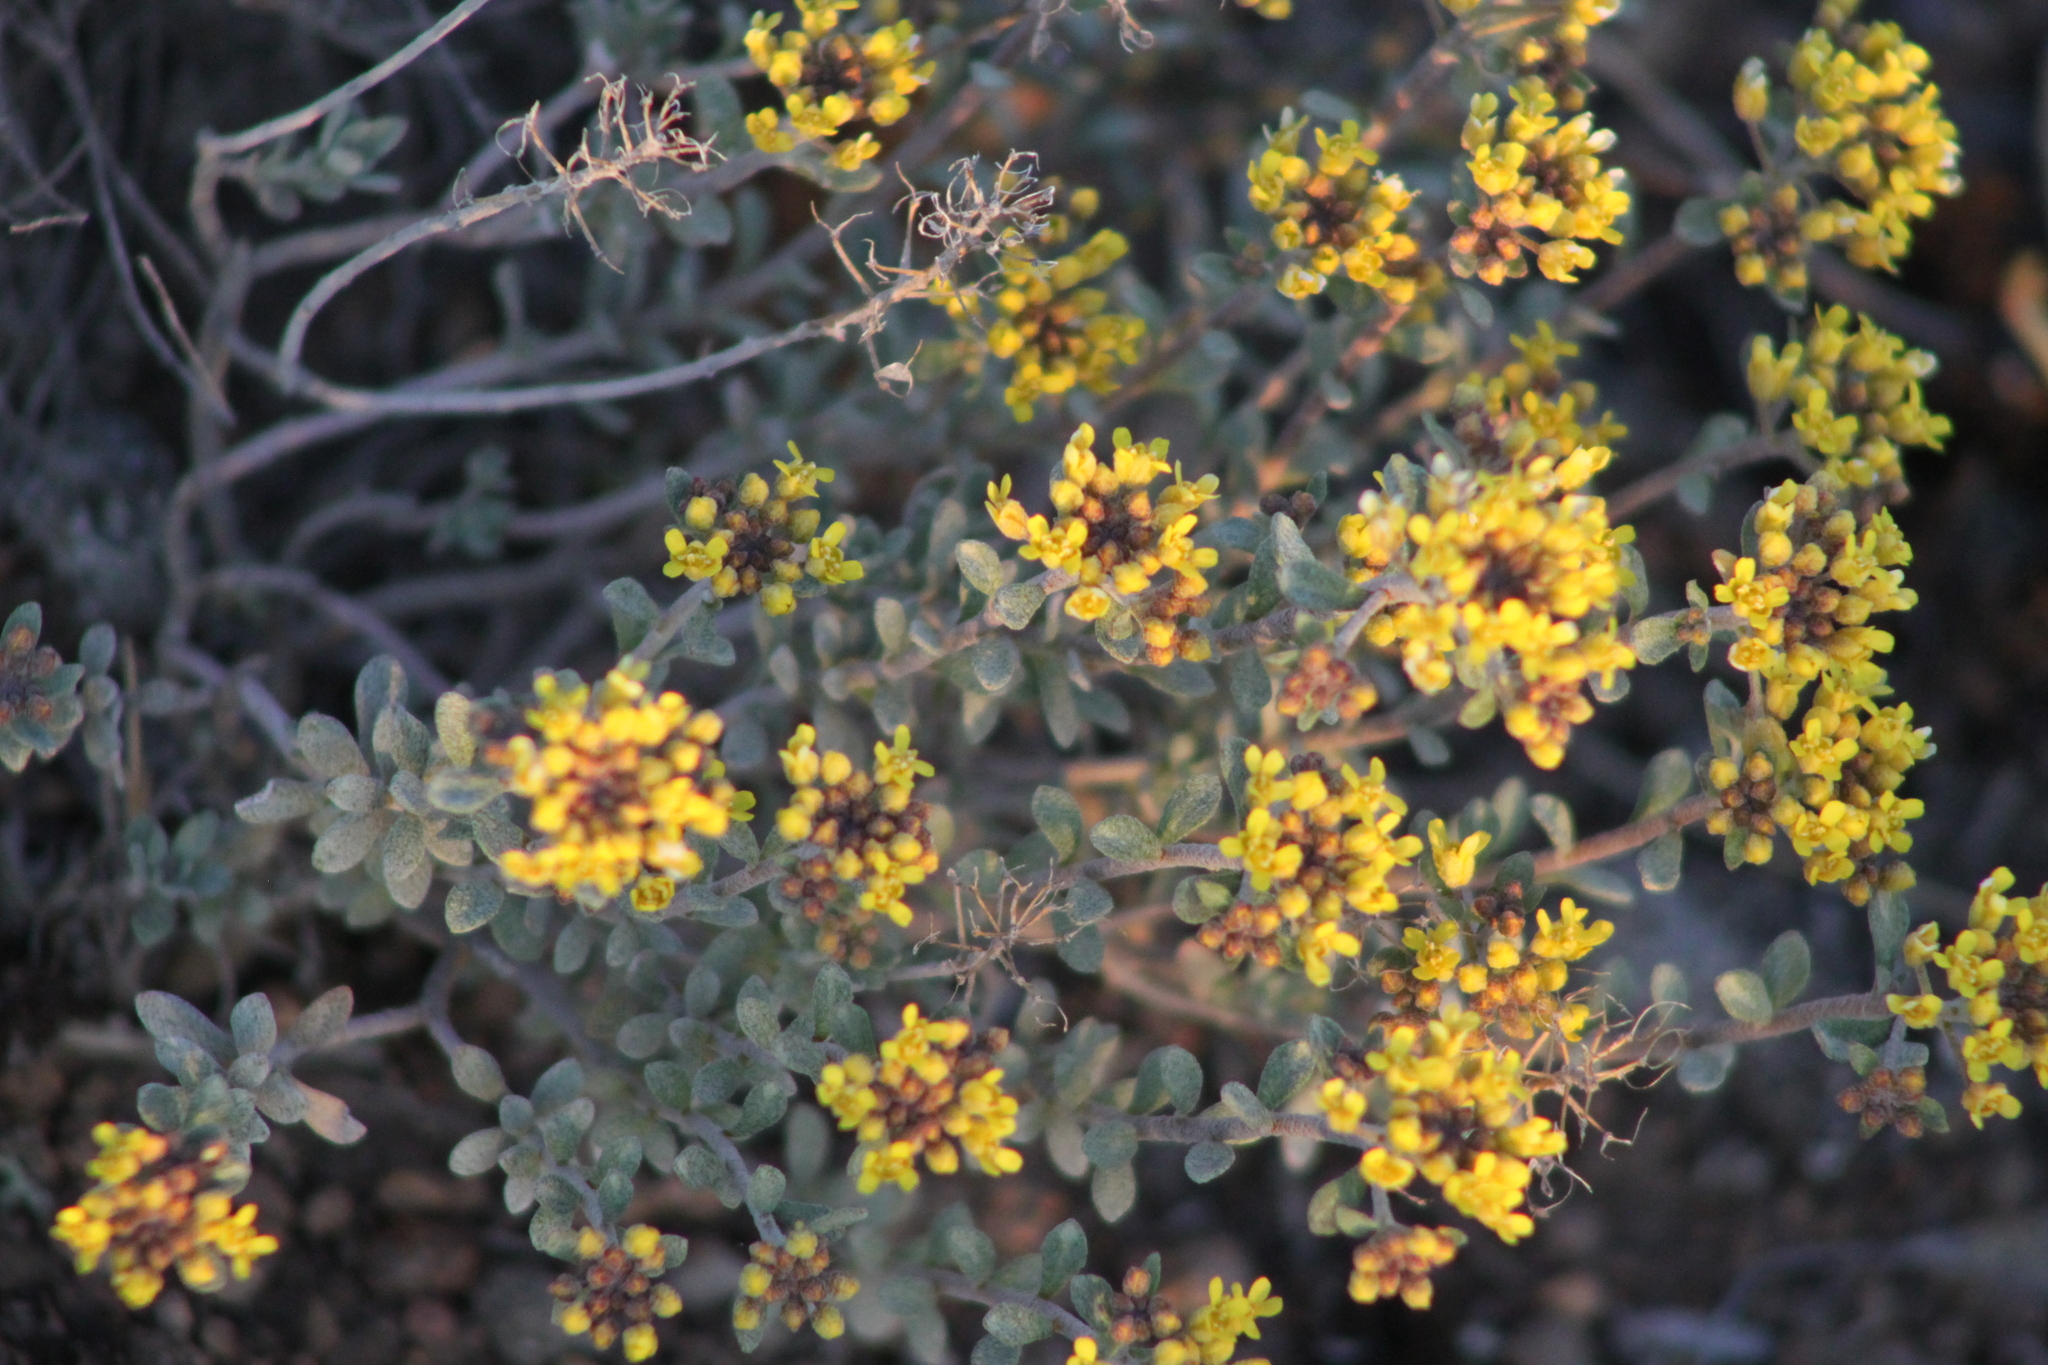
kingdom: Plantae
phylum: Tracheophyta
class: Magnoliopsida
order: Brassicales
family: Brassicaceae
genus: Odontarrhena
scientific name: Odontarrhena tortuosa
